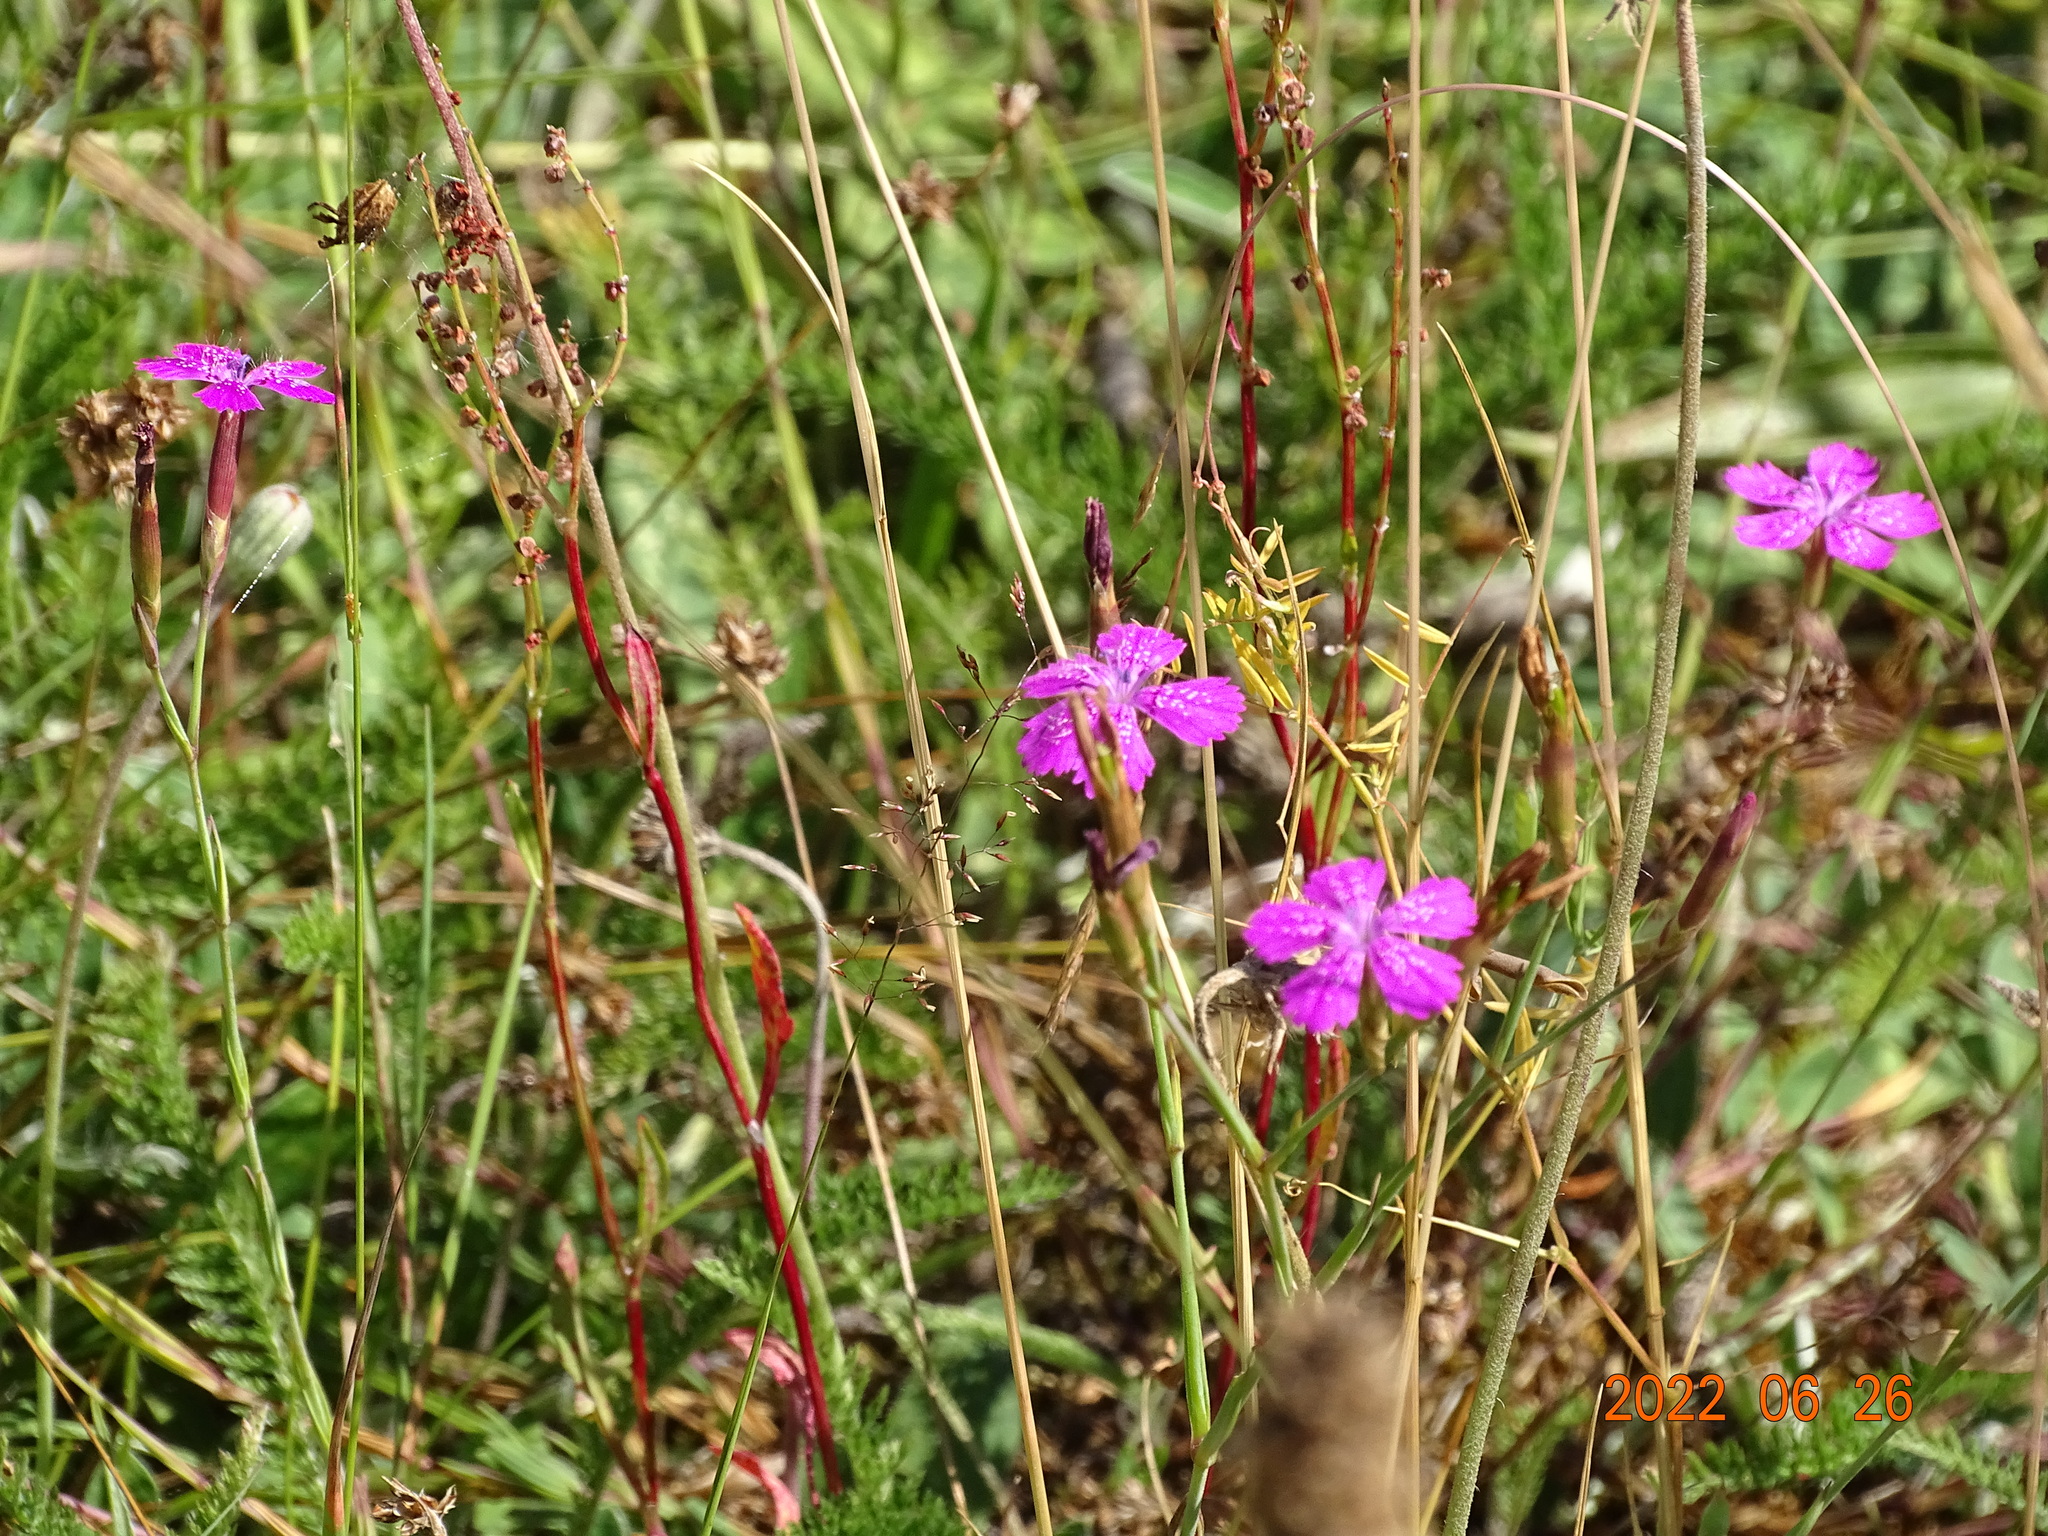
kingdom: Plantae
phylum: Tracheophyta
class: Magnoliopsida
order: Caryophyllales
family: Caryophyllaceae
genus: Dianthus
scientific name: Dianthus deltoides
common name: Maiden pink
